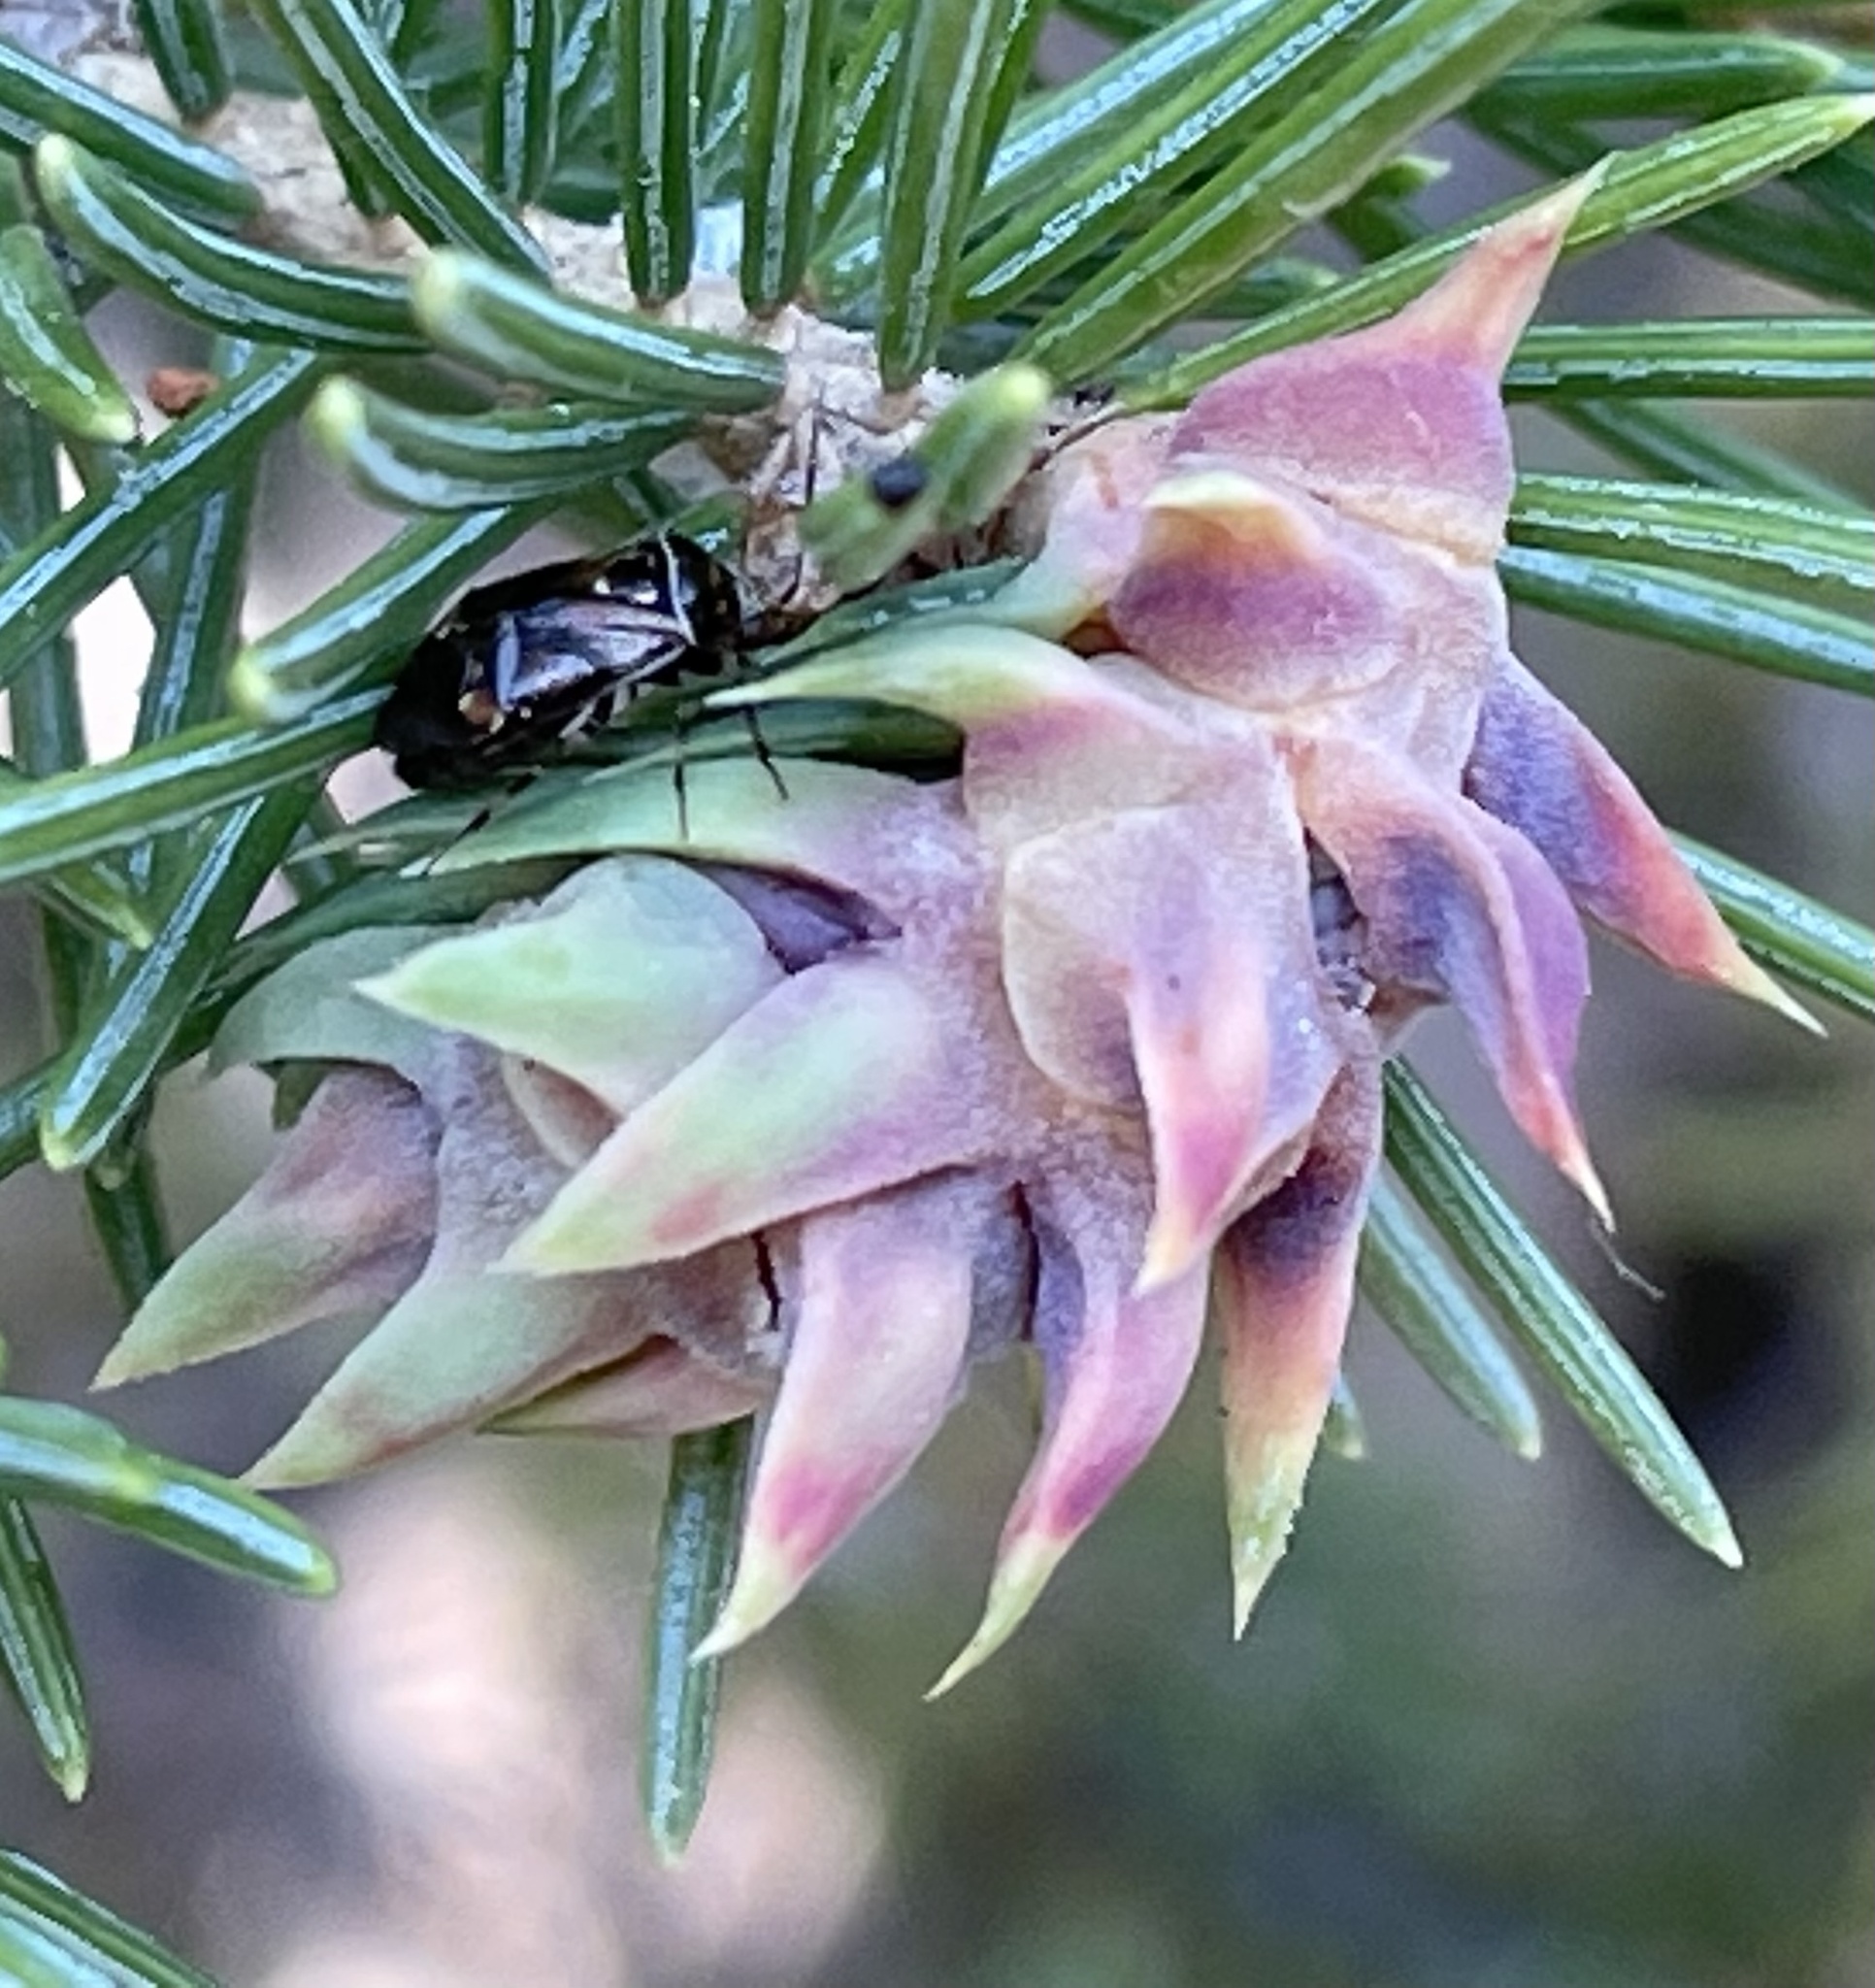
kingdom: Animalia
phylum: Arthropoda
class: Insecta
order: Hemiptera
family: Adelgidae
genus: Adelges
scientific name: Adelges cooleyi
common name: Cooley spruce gall adelgid
